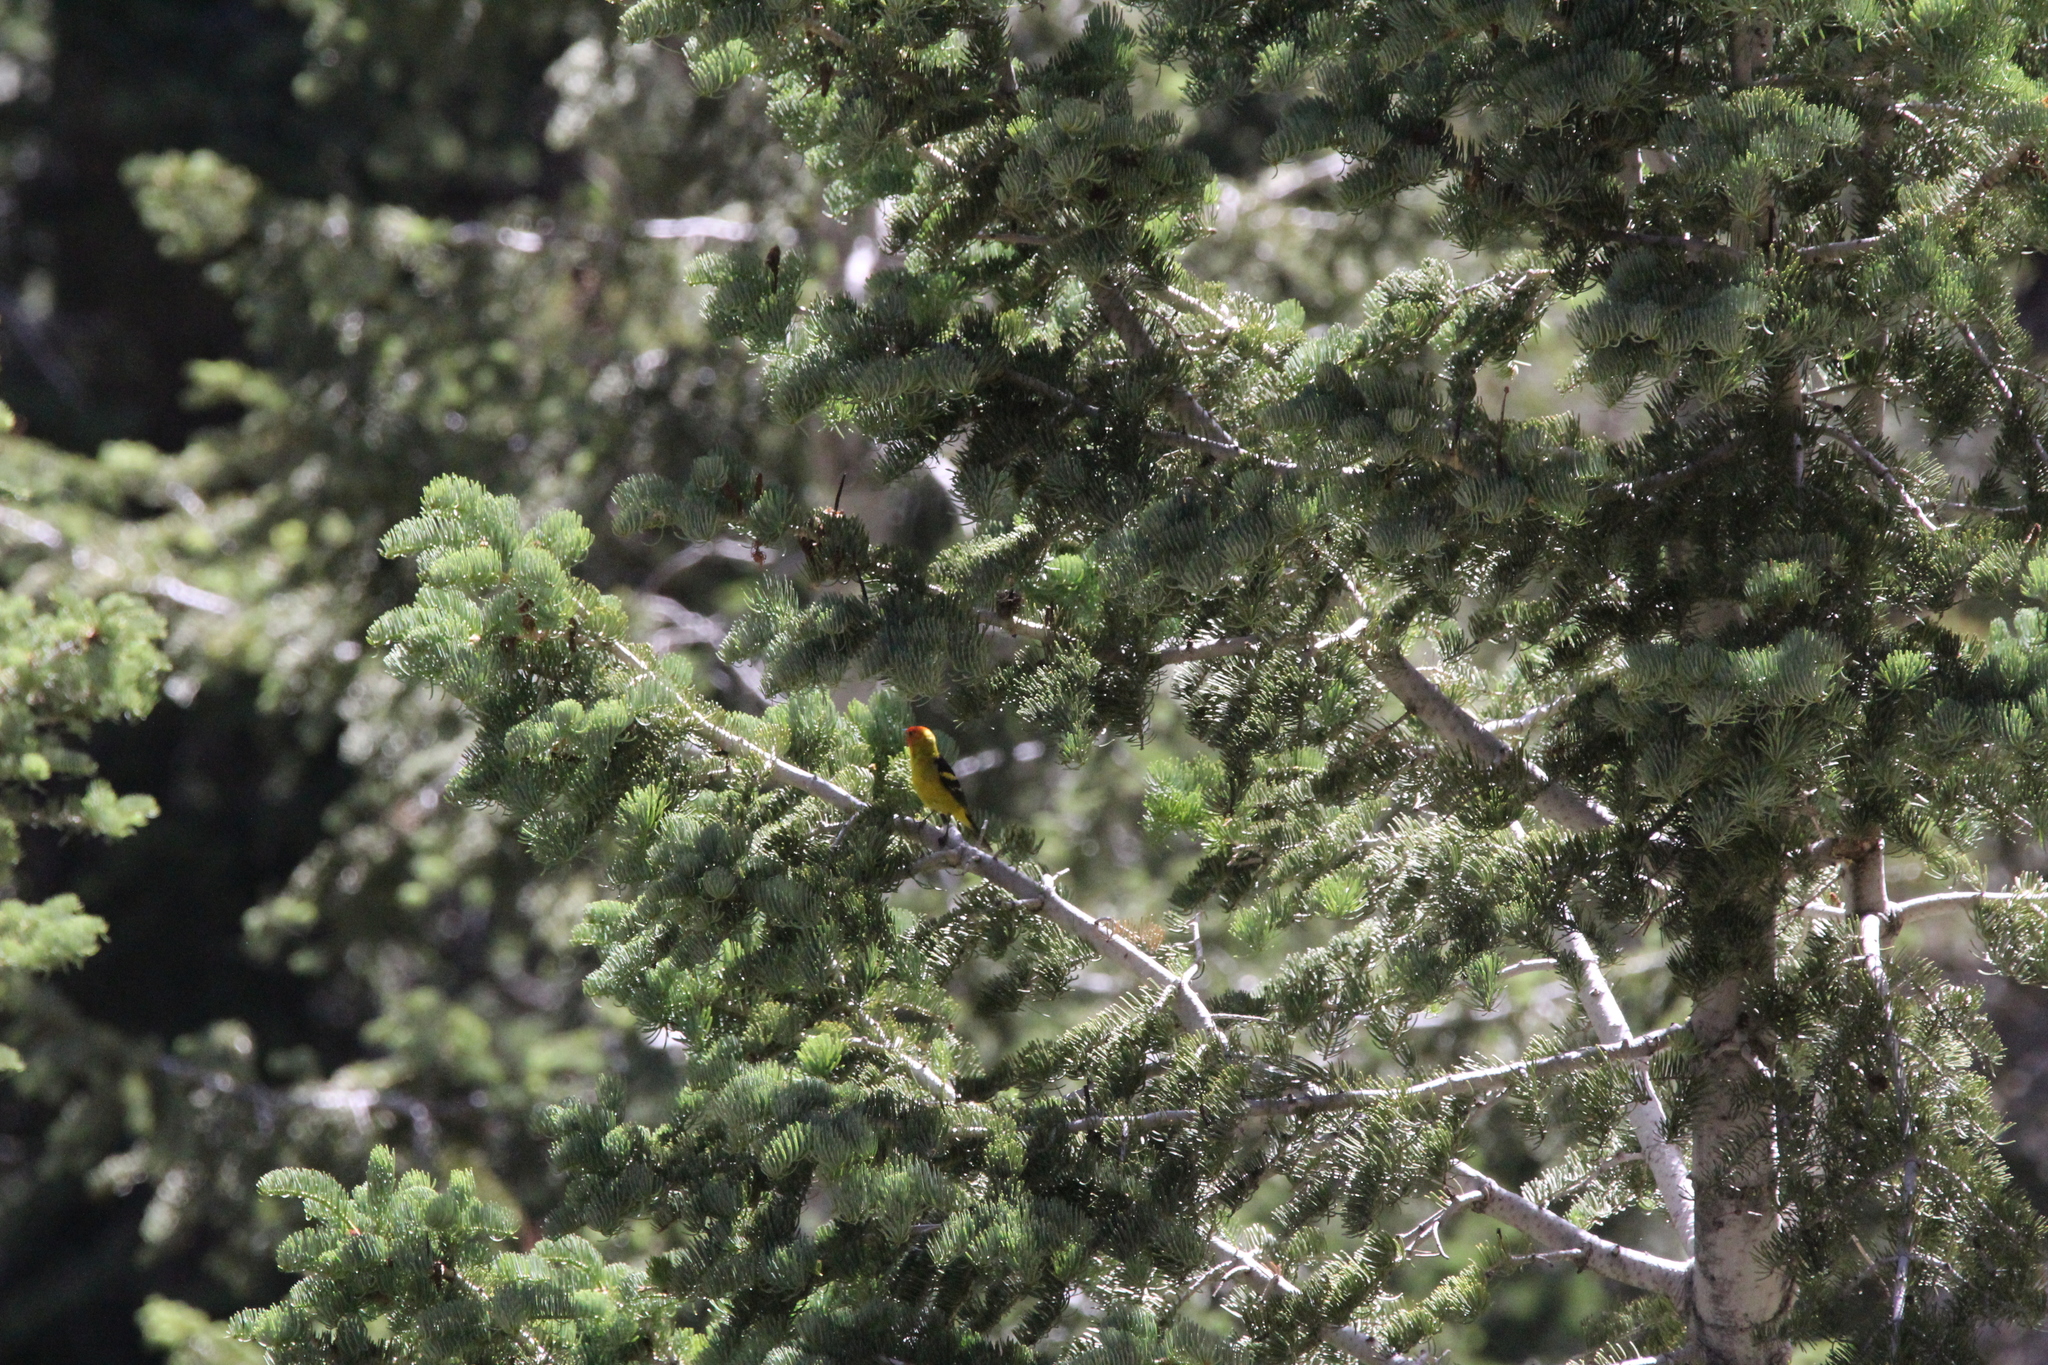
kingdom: Animalia
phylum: Chordata
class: Aves
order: Passeriformes
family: Cardinalidae
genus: Piranga
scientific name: Piranga ludoviciana
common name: Western tanager
